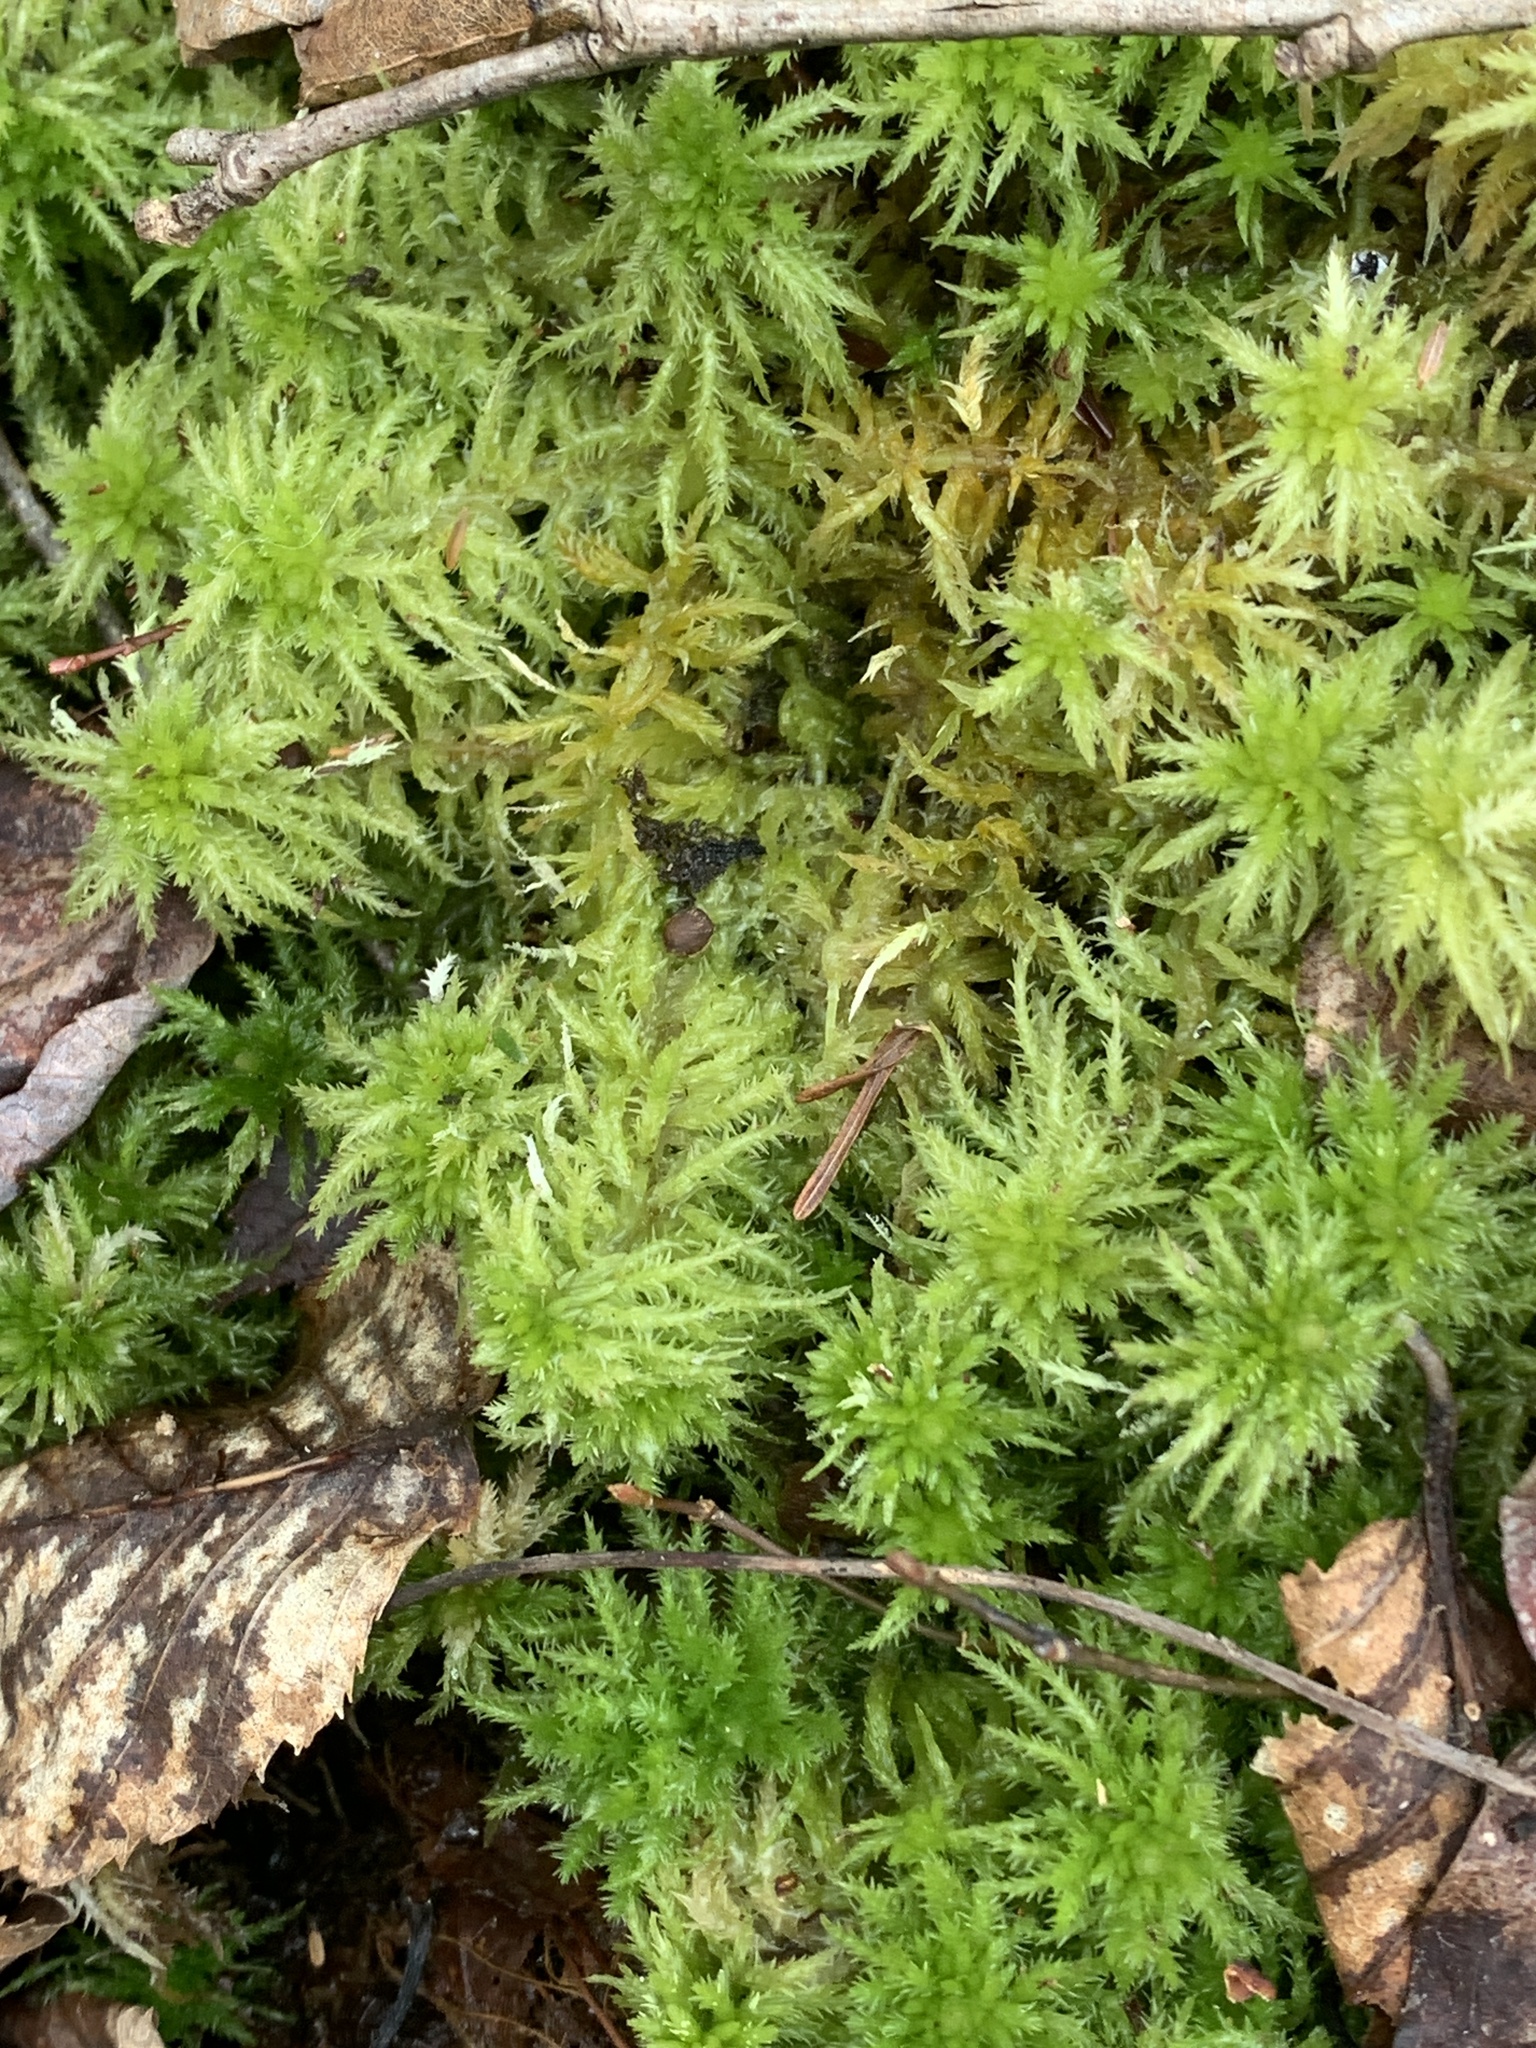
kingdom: Plantae
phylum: Bryophyta
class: Sphagnopsida
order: Sphagnales
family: Sphagnaceae
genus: Sphagnum
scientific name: Sphagnum squarrosum
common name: Shaggy peat moss
